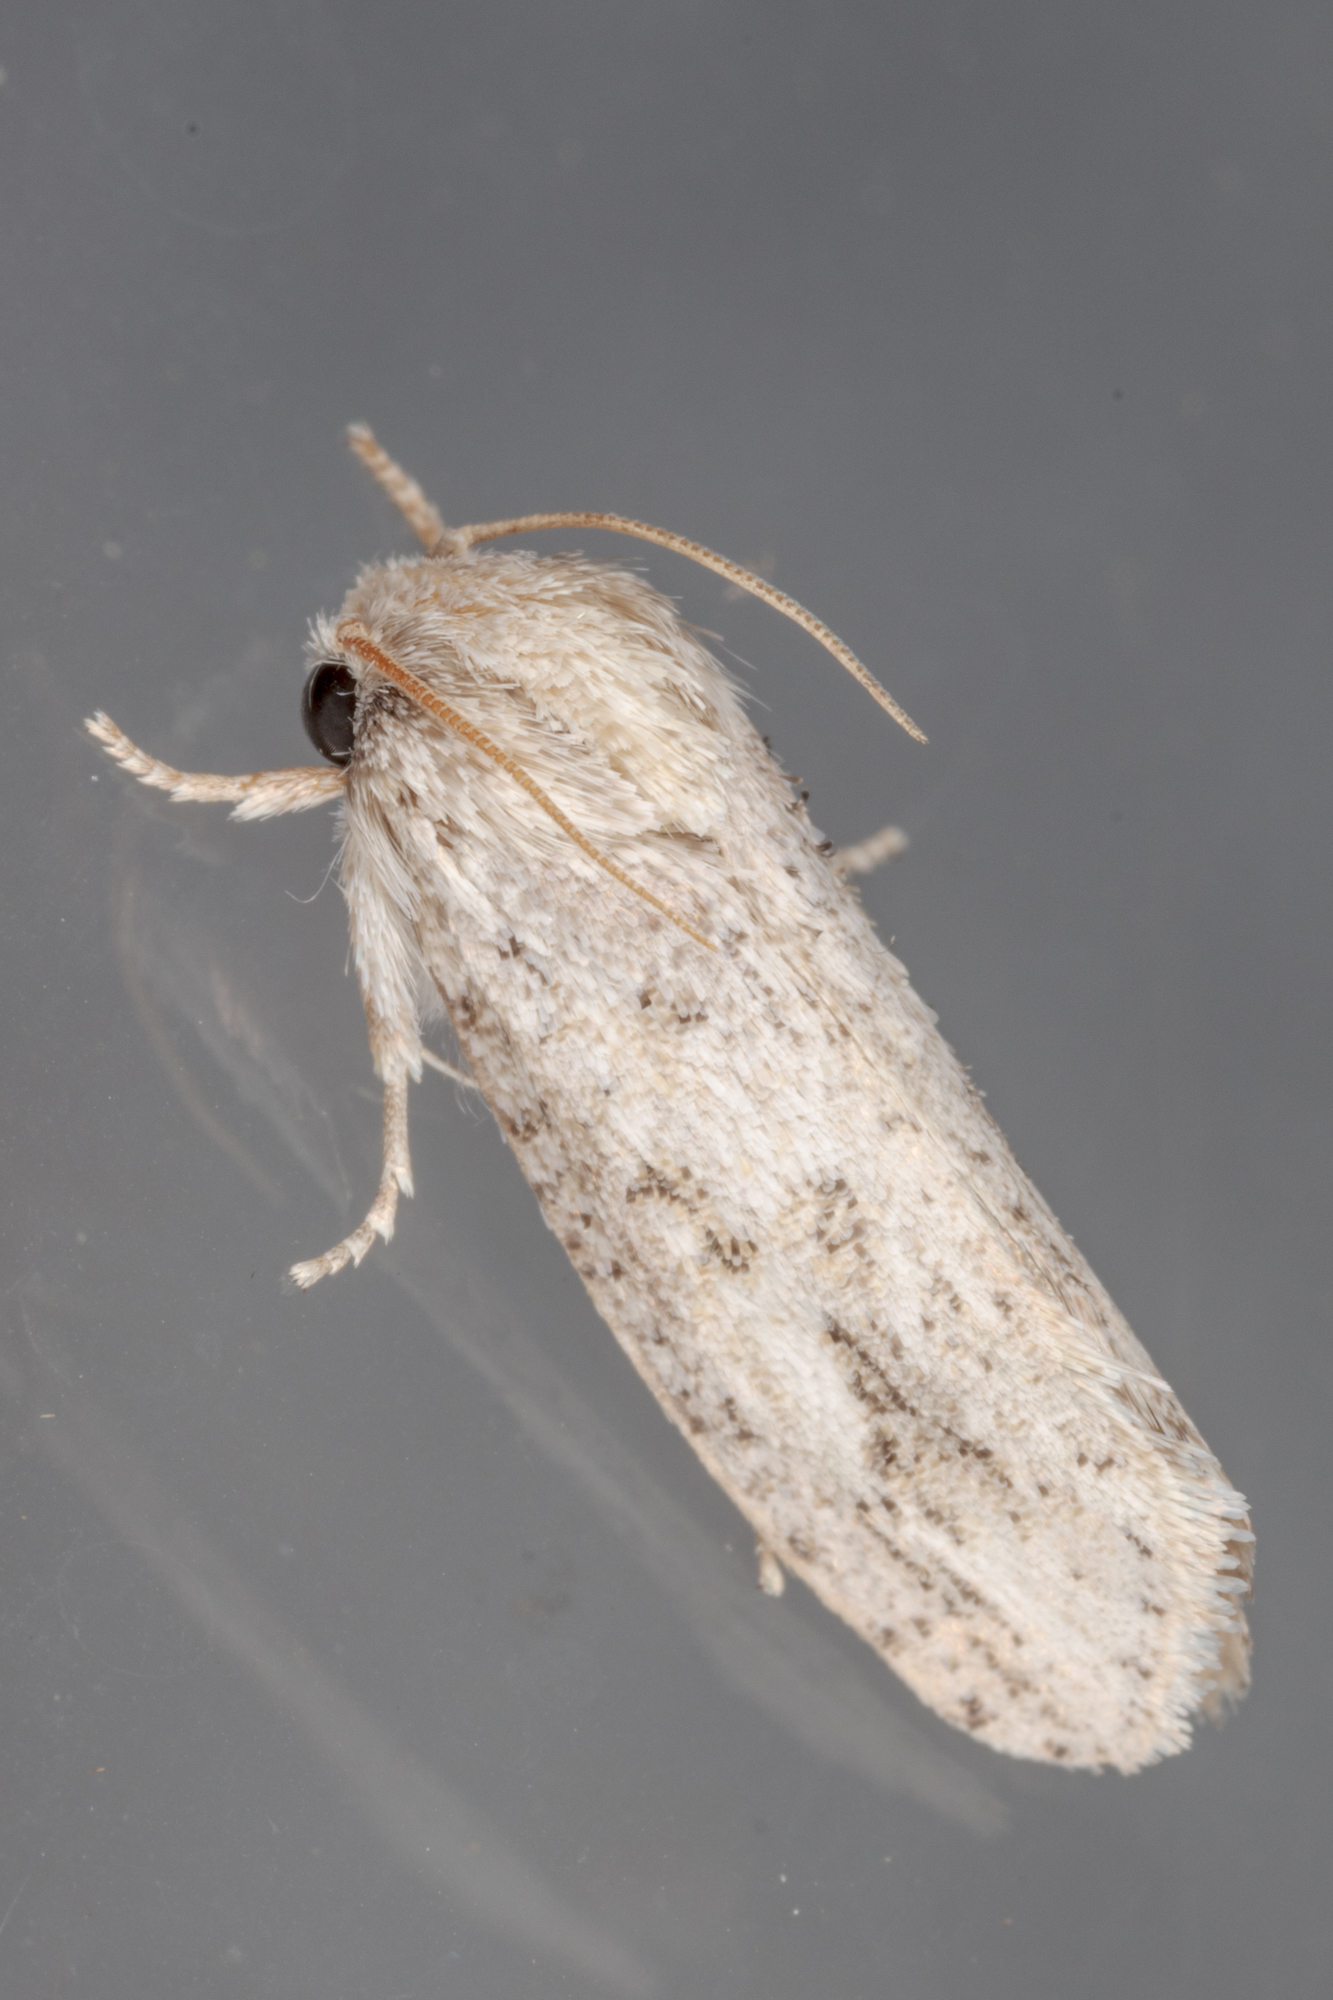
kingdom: Animalia
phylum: Arthropoda
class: Insecta
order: Lepidoptera
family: Tineidae
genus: Acrolophus
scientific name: Acrolophus griseus
